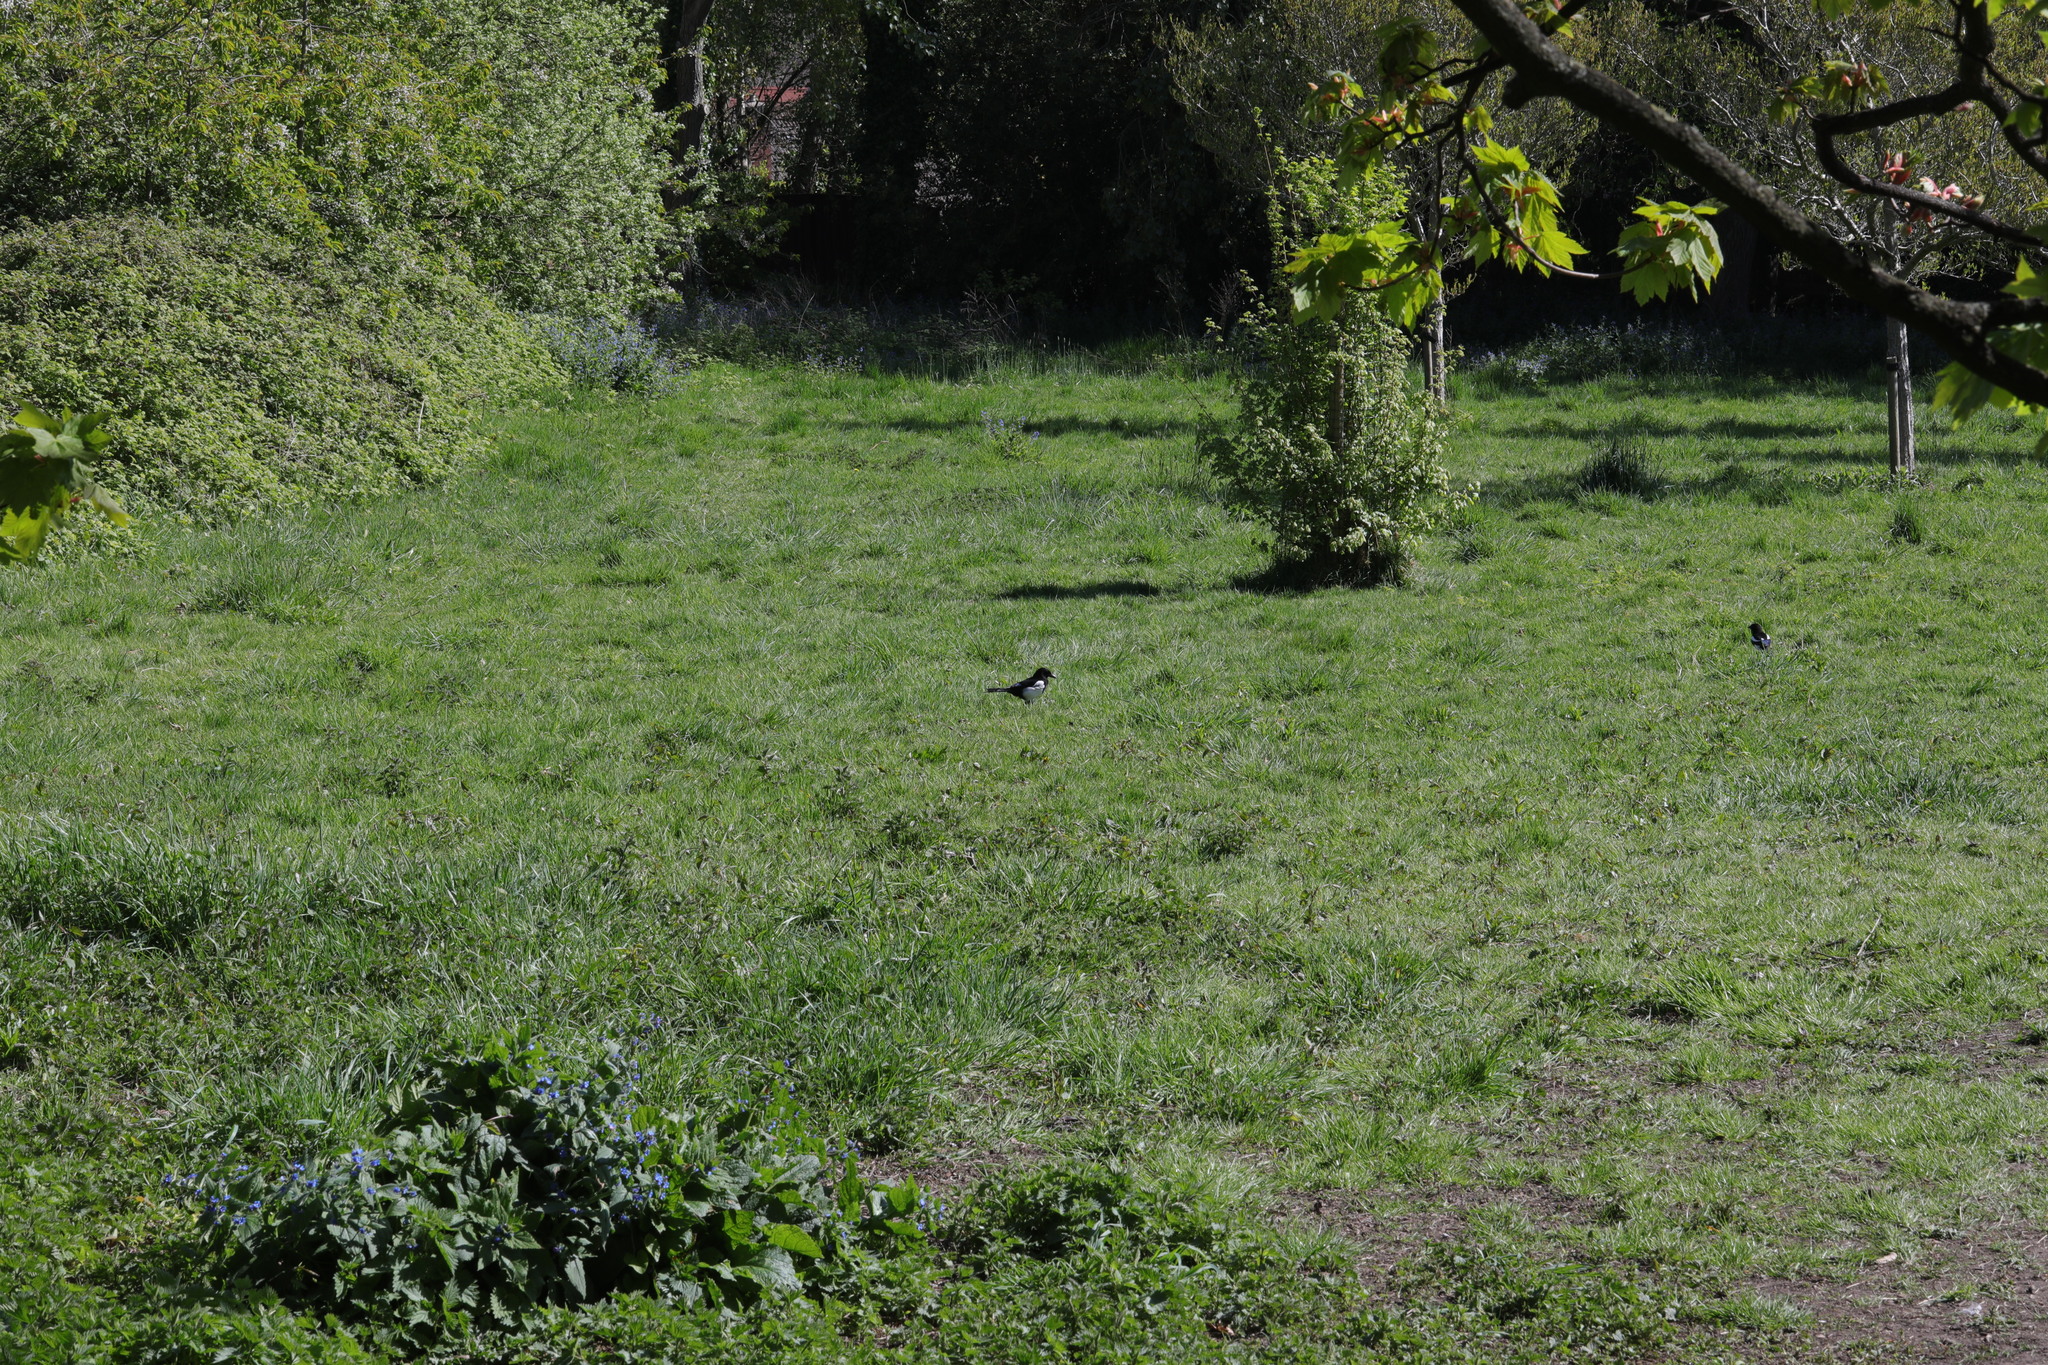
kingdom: Animalia
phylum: Chordata
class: Aves
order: Passeriformes
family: Corvidae
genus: Pica
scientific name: Pica pica
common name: Eurasian magpie
